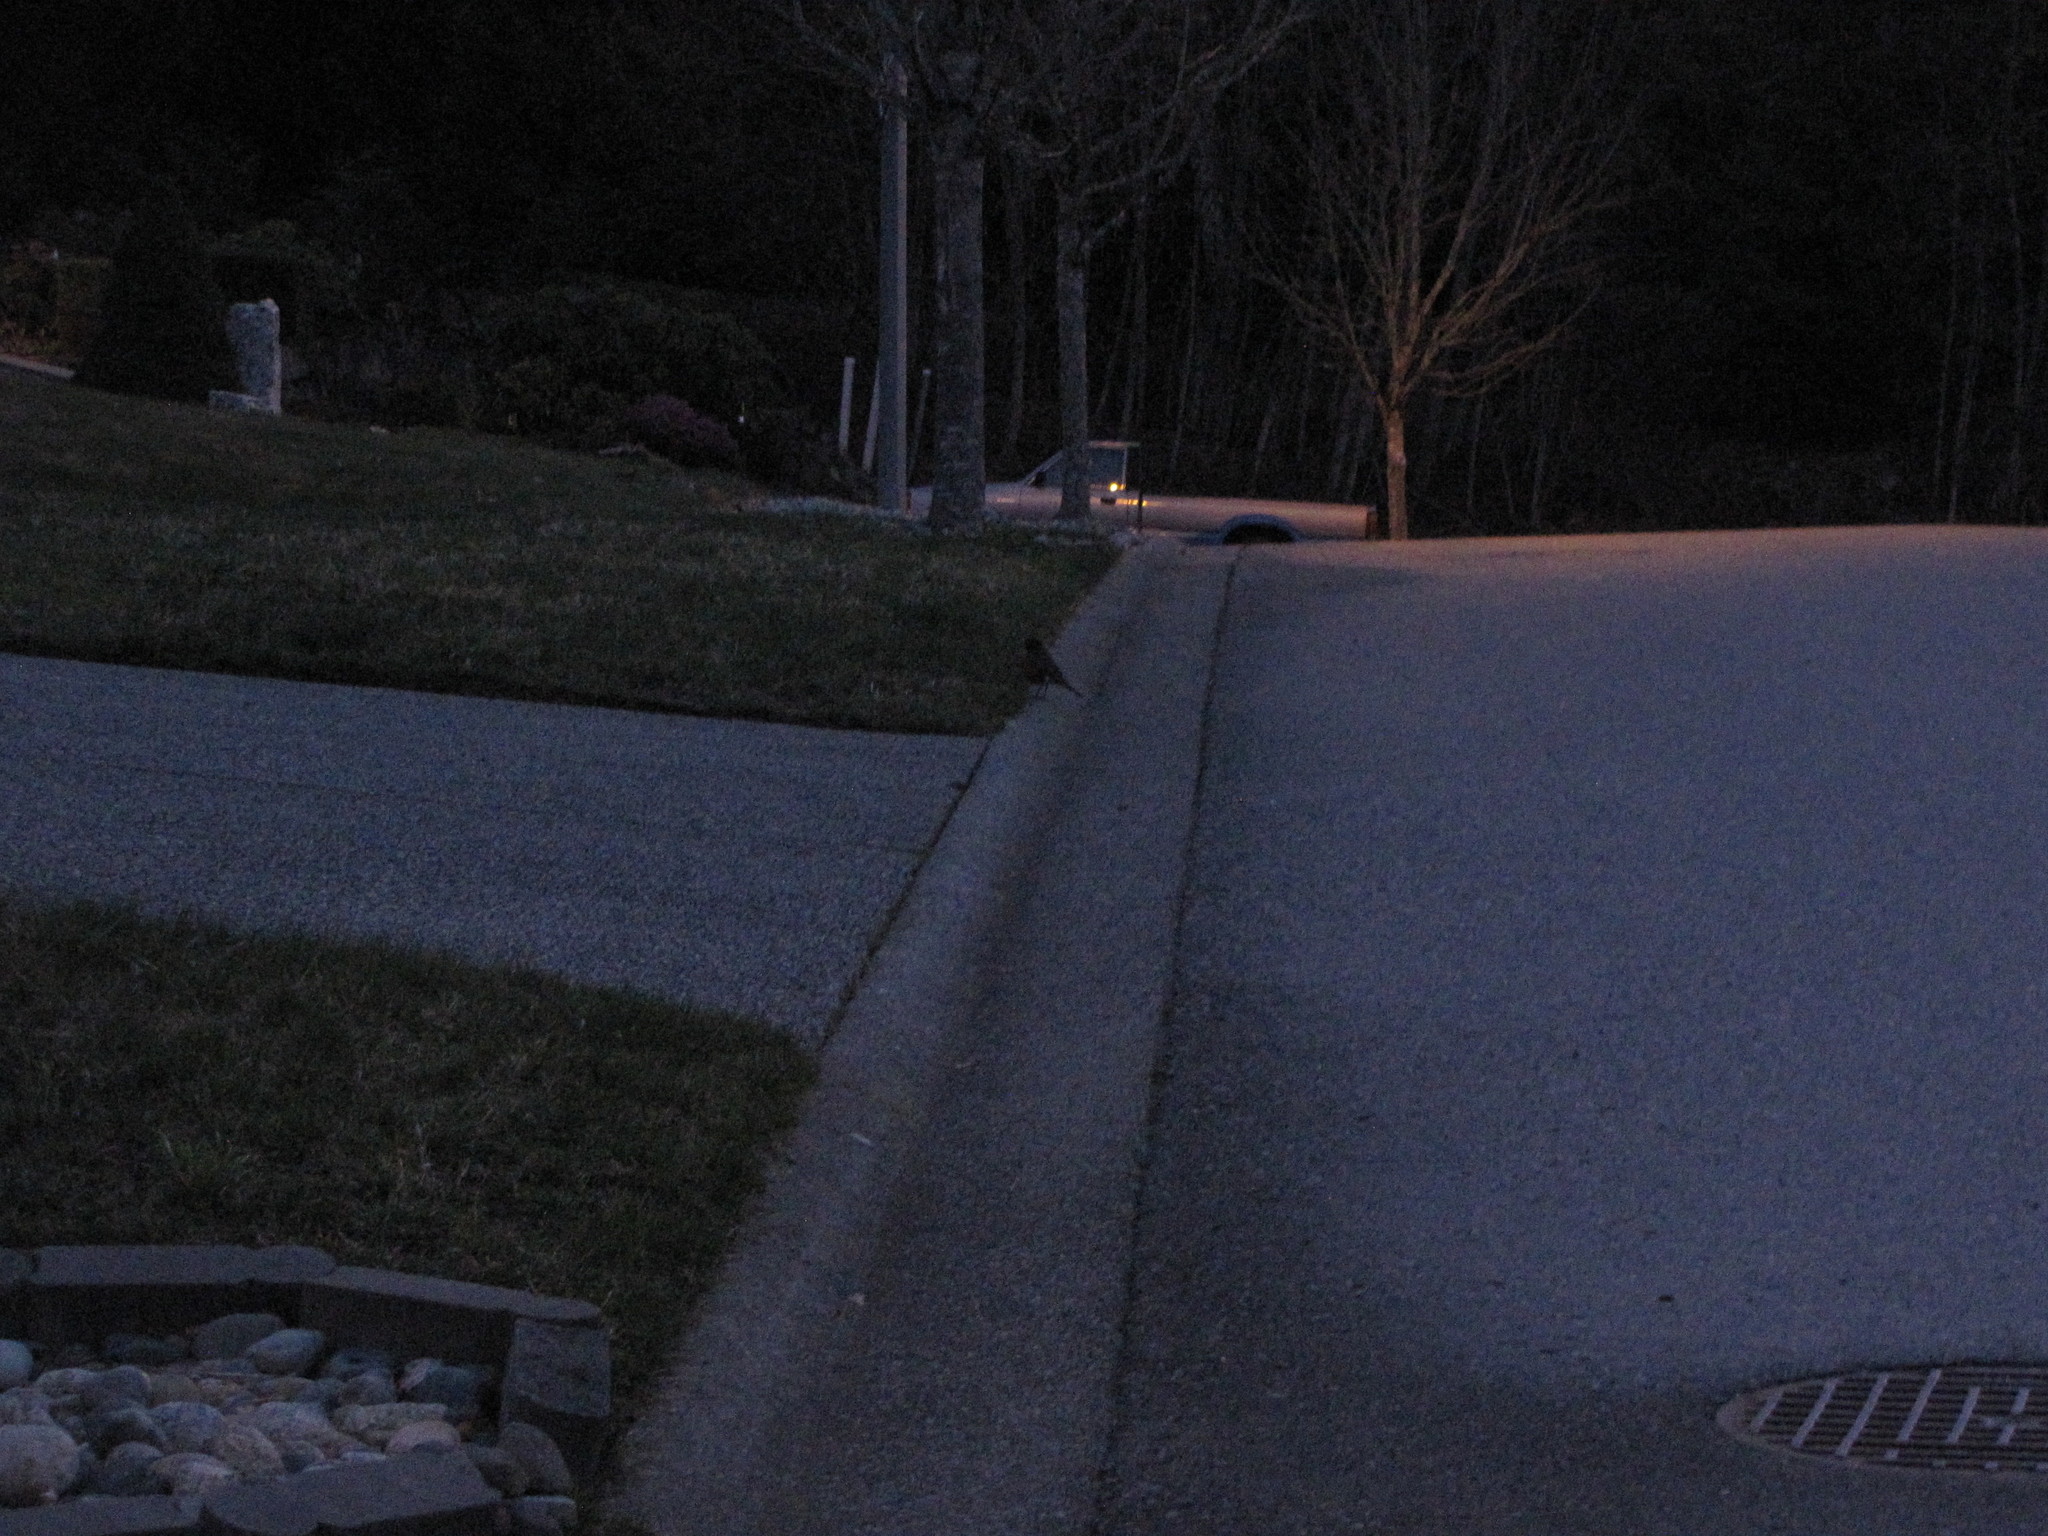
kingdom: Animalia
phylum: Chordata
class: Aves
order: Passeriformes
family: Turdidae
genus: Turdus
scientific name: Turdus migratorius
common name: American robin
